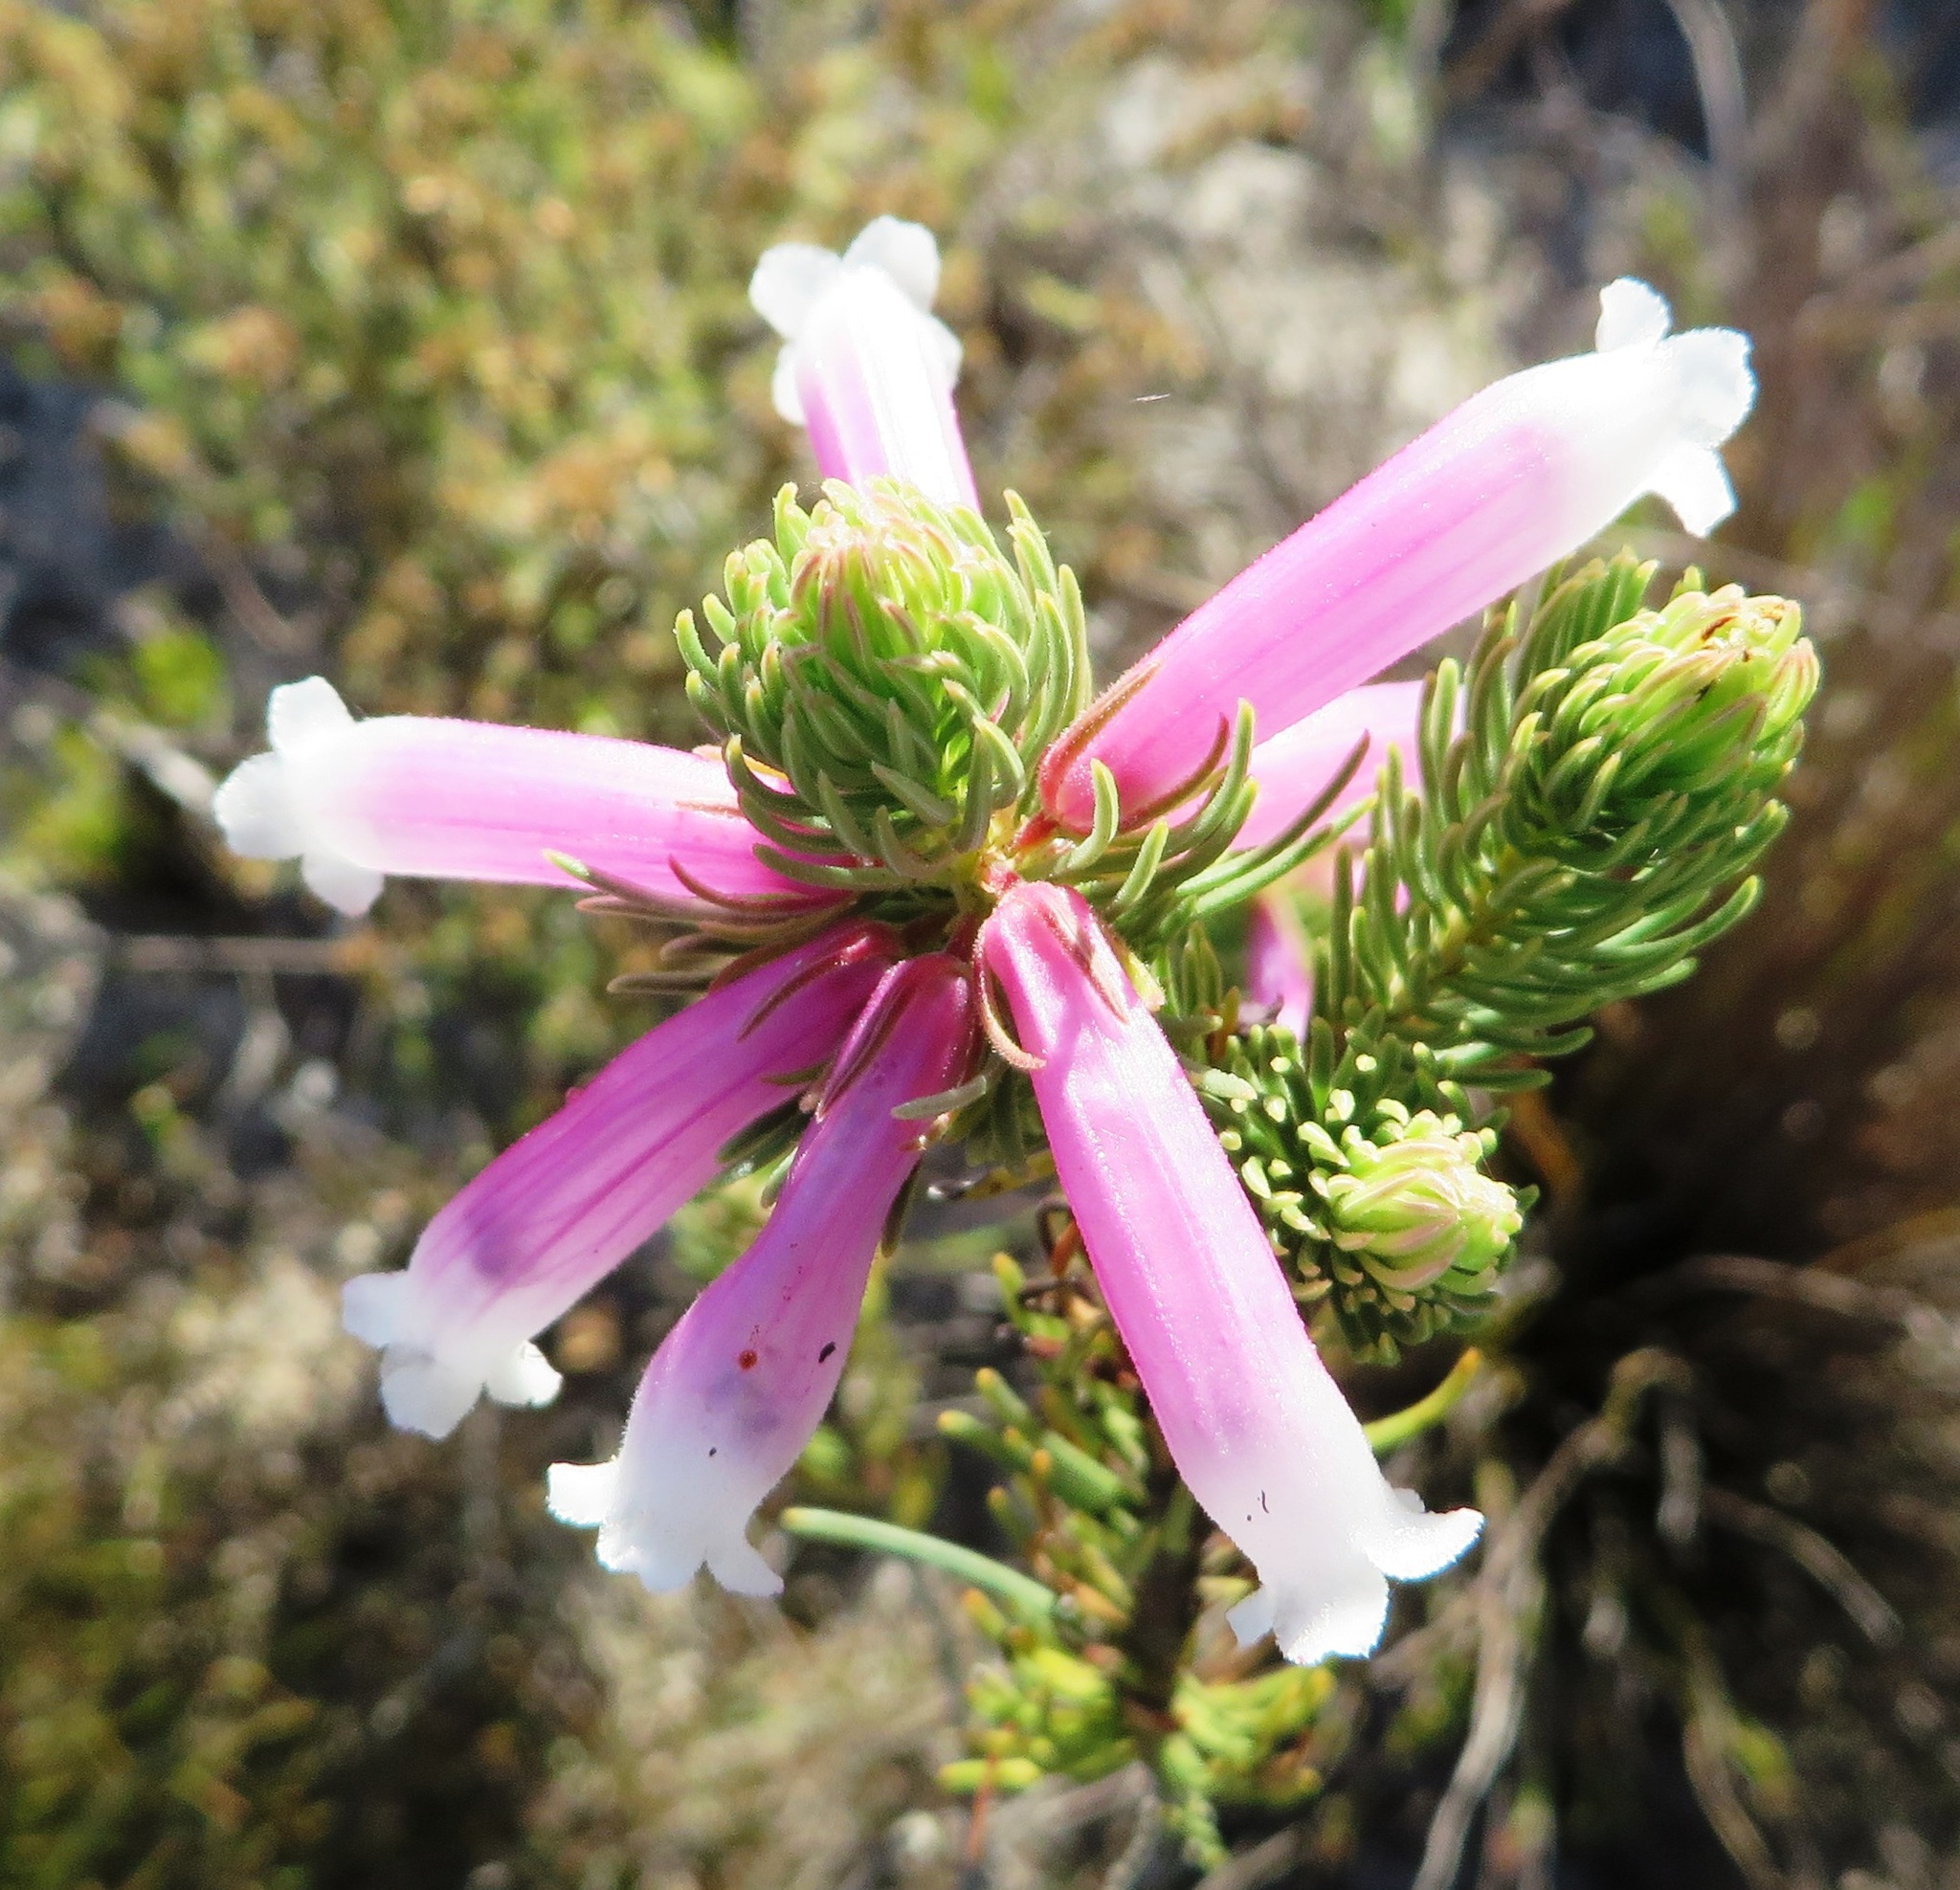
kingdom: Plantae
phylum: Tracheophyta
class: Magnoliopsida
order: Ericales
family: Ericaceae
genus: Erica
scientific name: Erica viscaria
